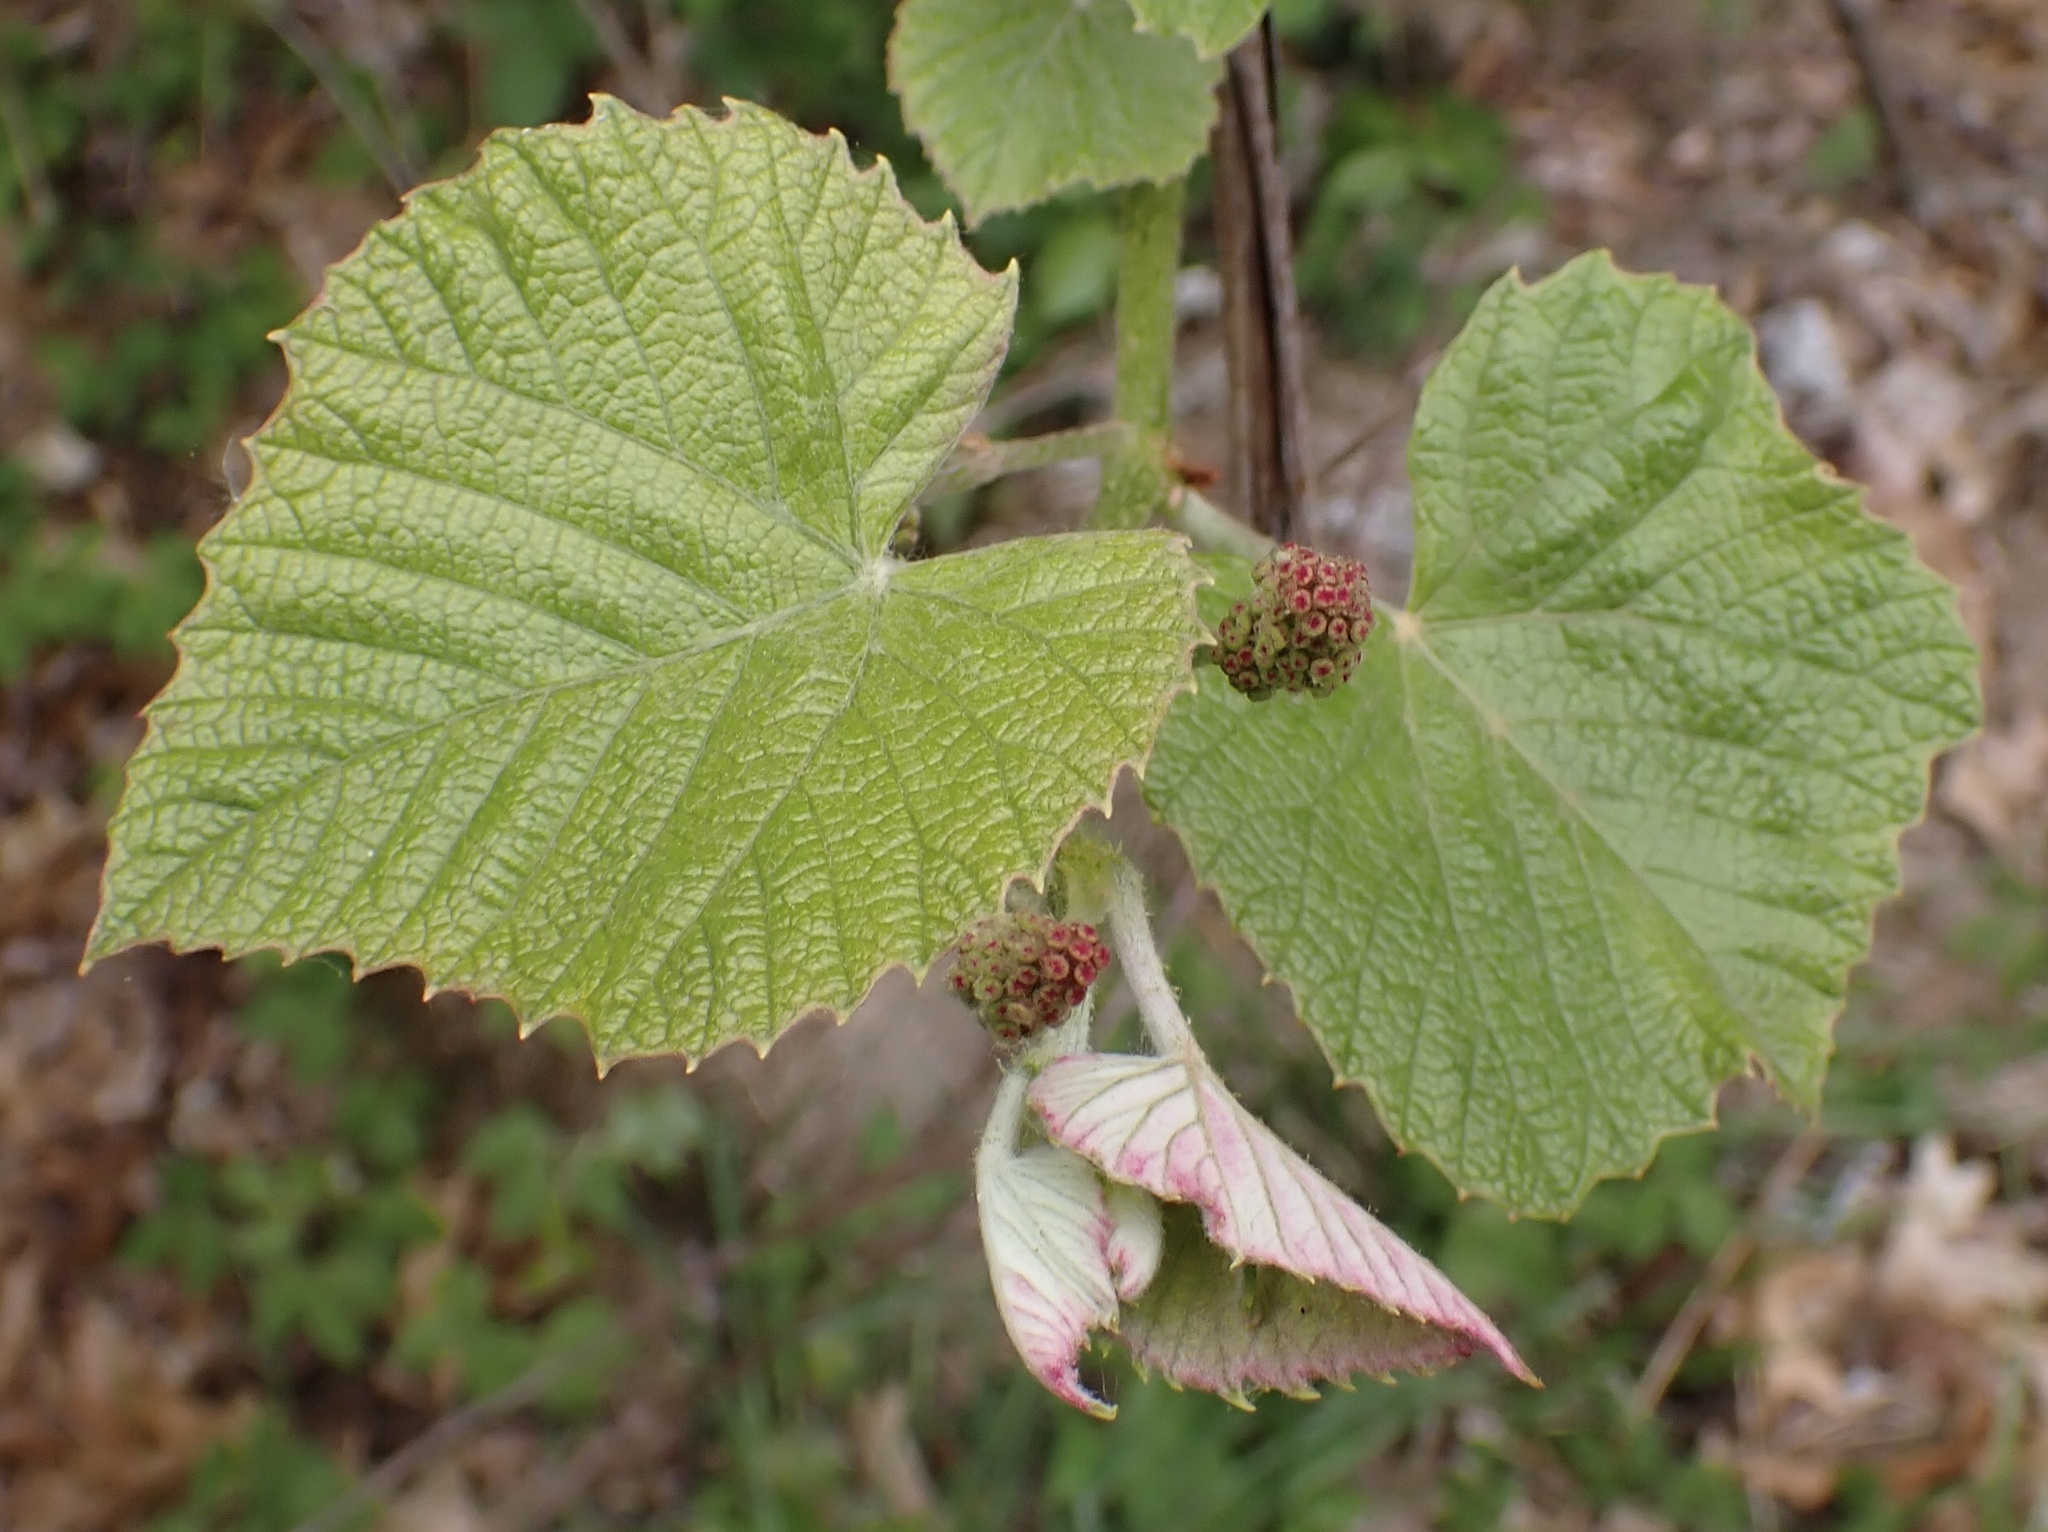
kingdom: Plantae
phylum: Tracheophyta
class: Magnoliopsida
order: Vitales
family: Vitaceae
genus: Vitis
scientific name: Vitis labrusca
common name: Concord grape
